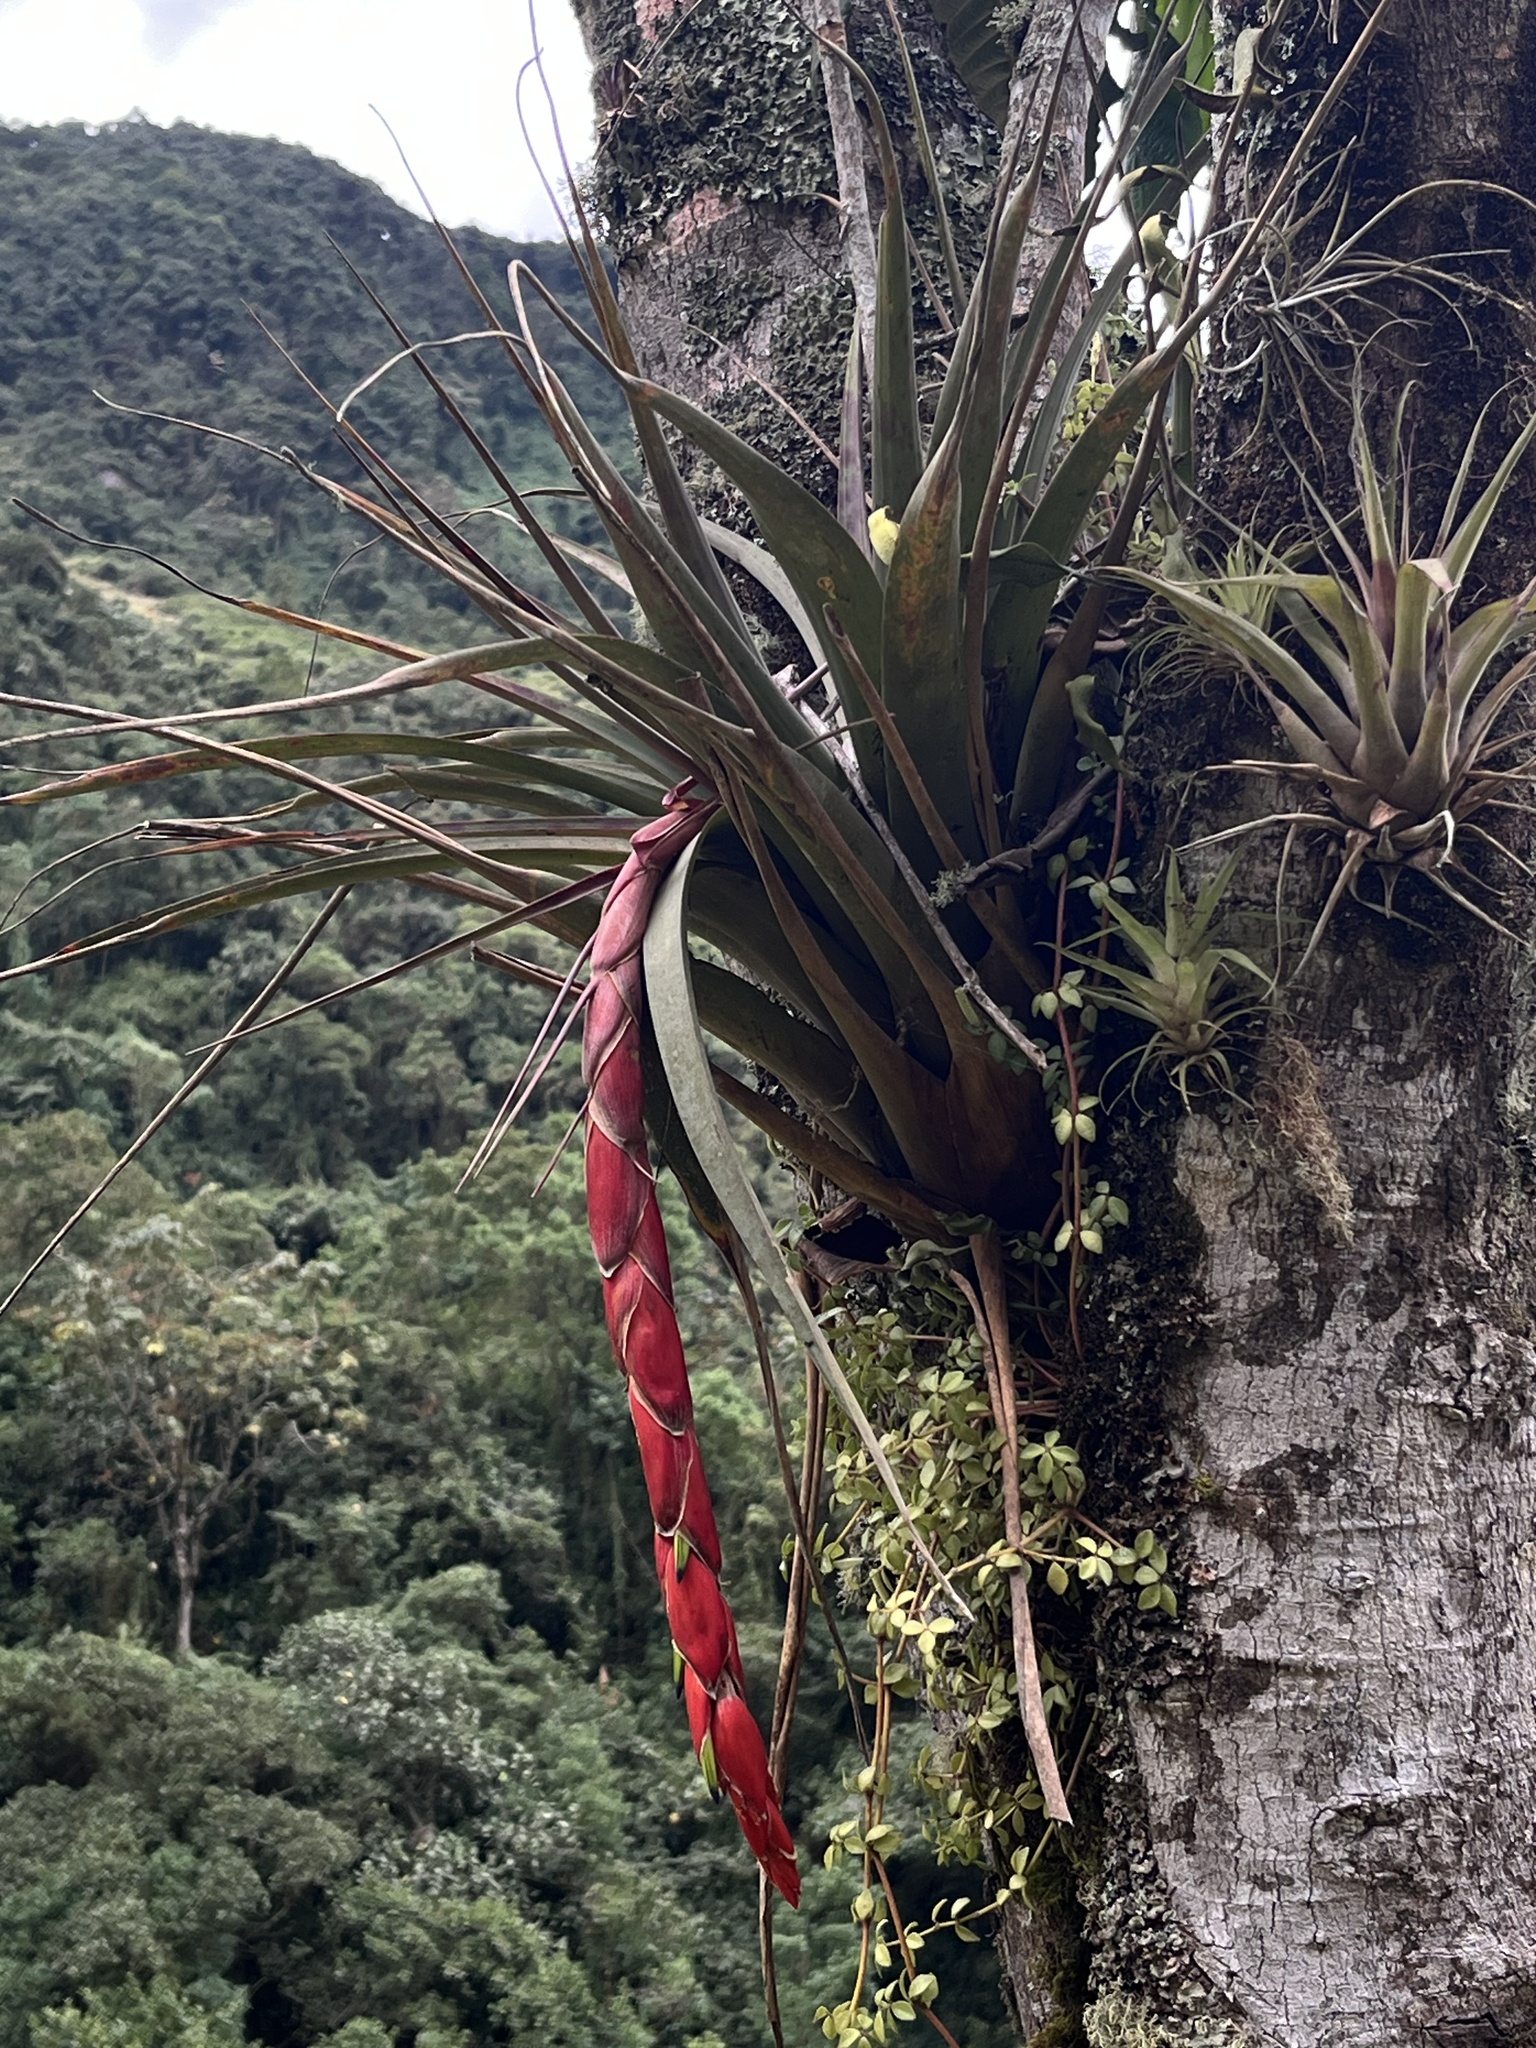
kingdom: Plantae
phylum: Tracheophyta
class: Liliopsida
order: Poales
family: Bromeliaceae
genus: Vriesea
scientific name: Vriesea tequendamae
